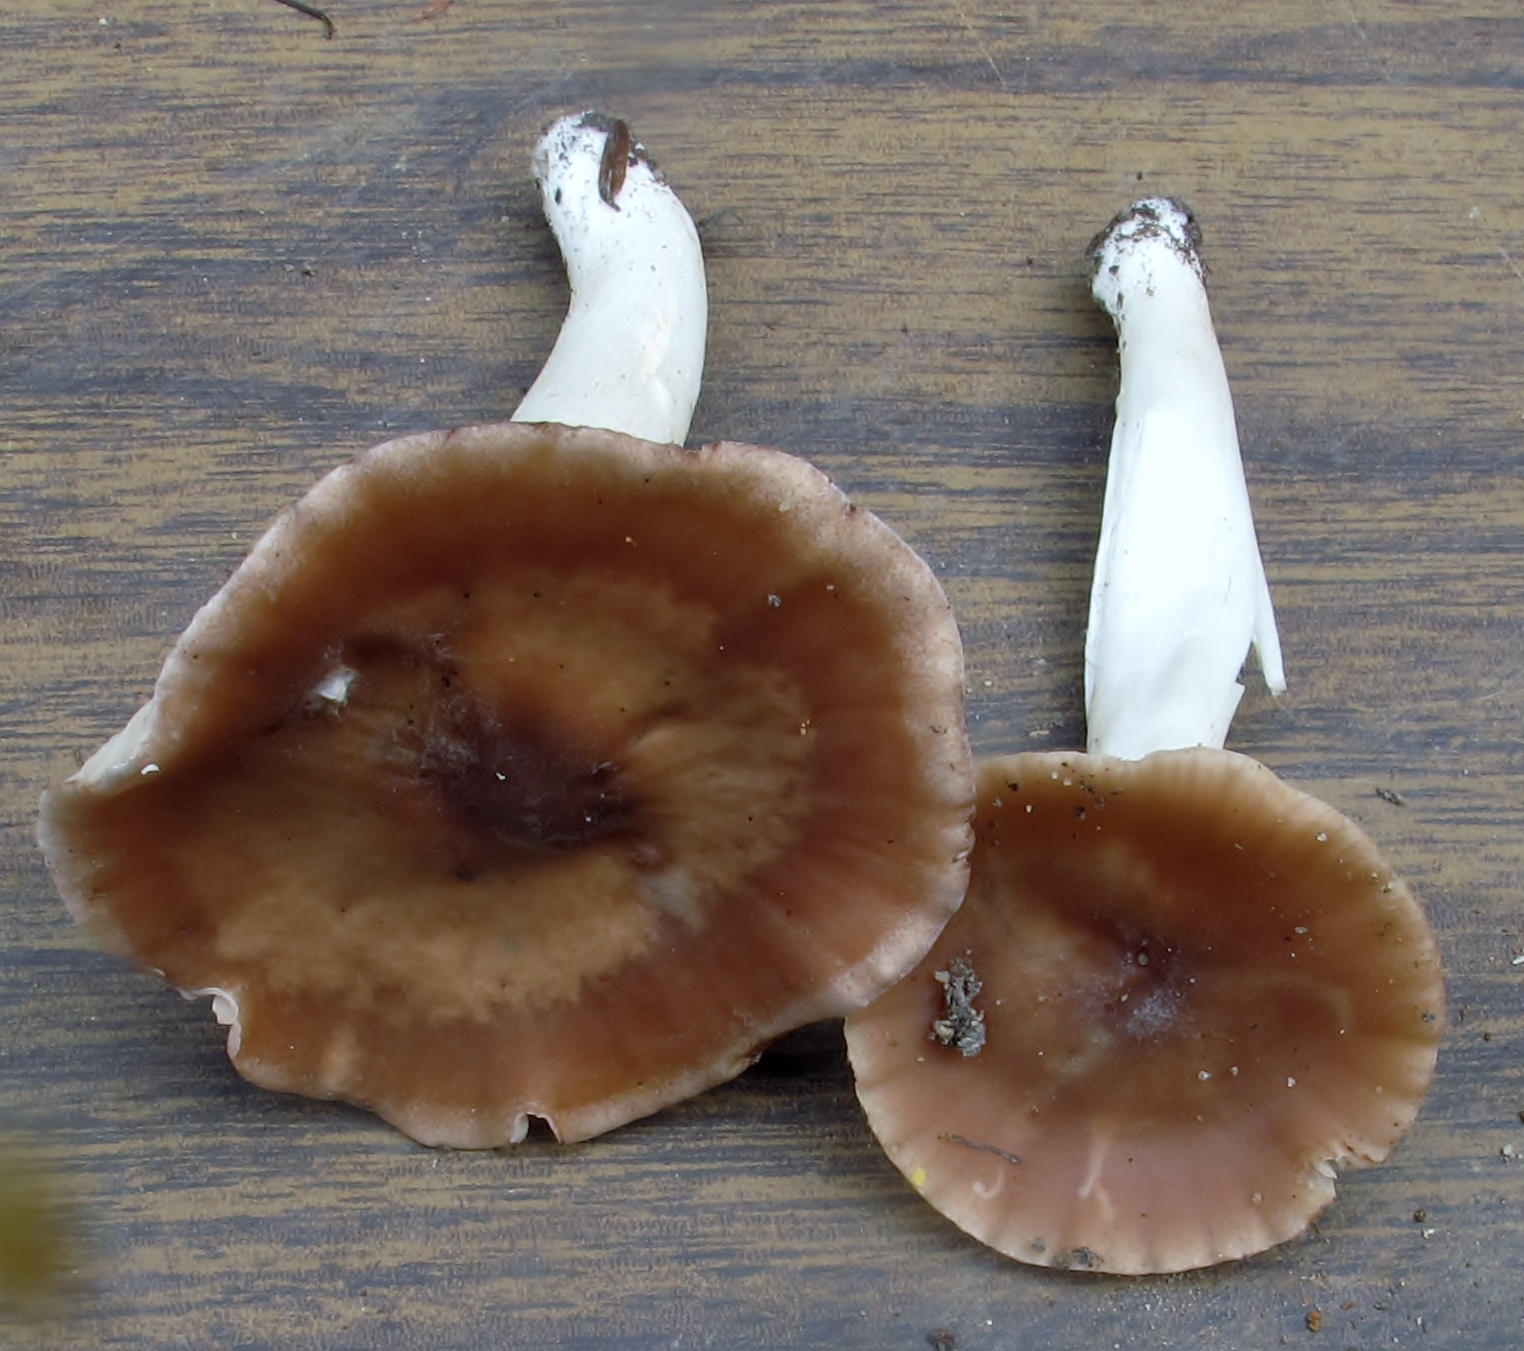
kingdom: Fungi
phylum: Basidiomycota
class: Agaricomycetes
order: Agaricales
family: Hygrophoraceae
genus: Cuphophyllus
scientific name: Cuphophyllus colemannianus
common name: Toasted waxcap
